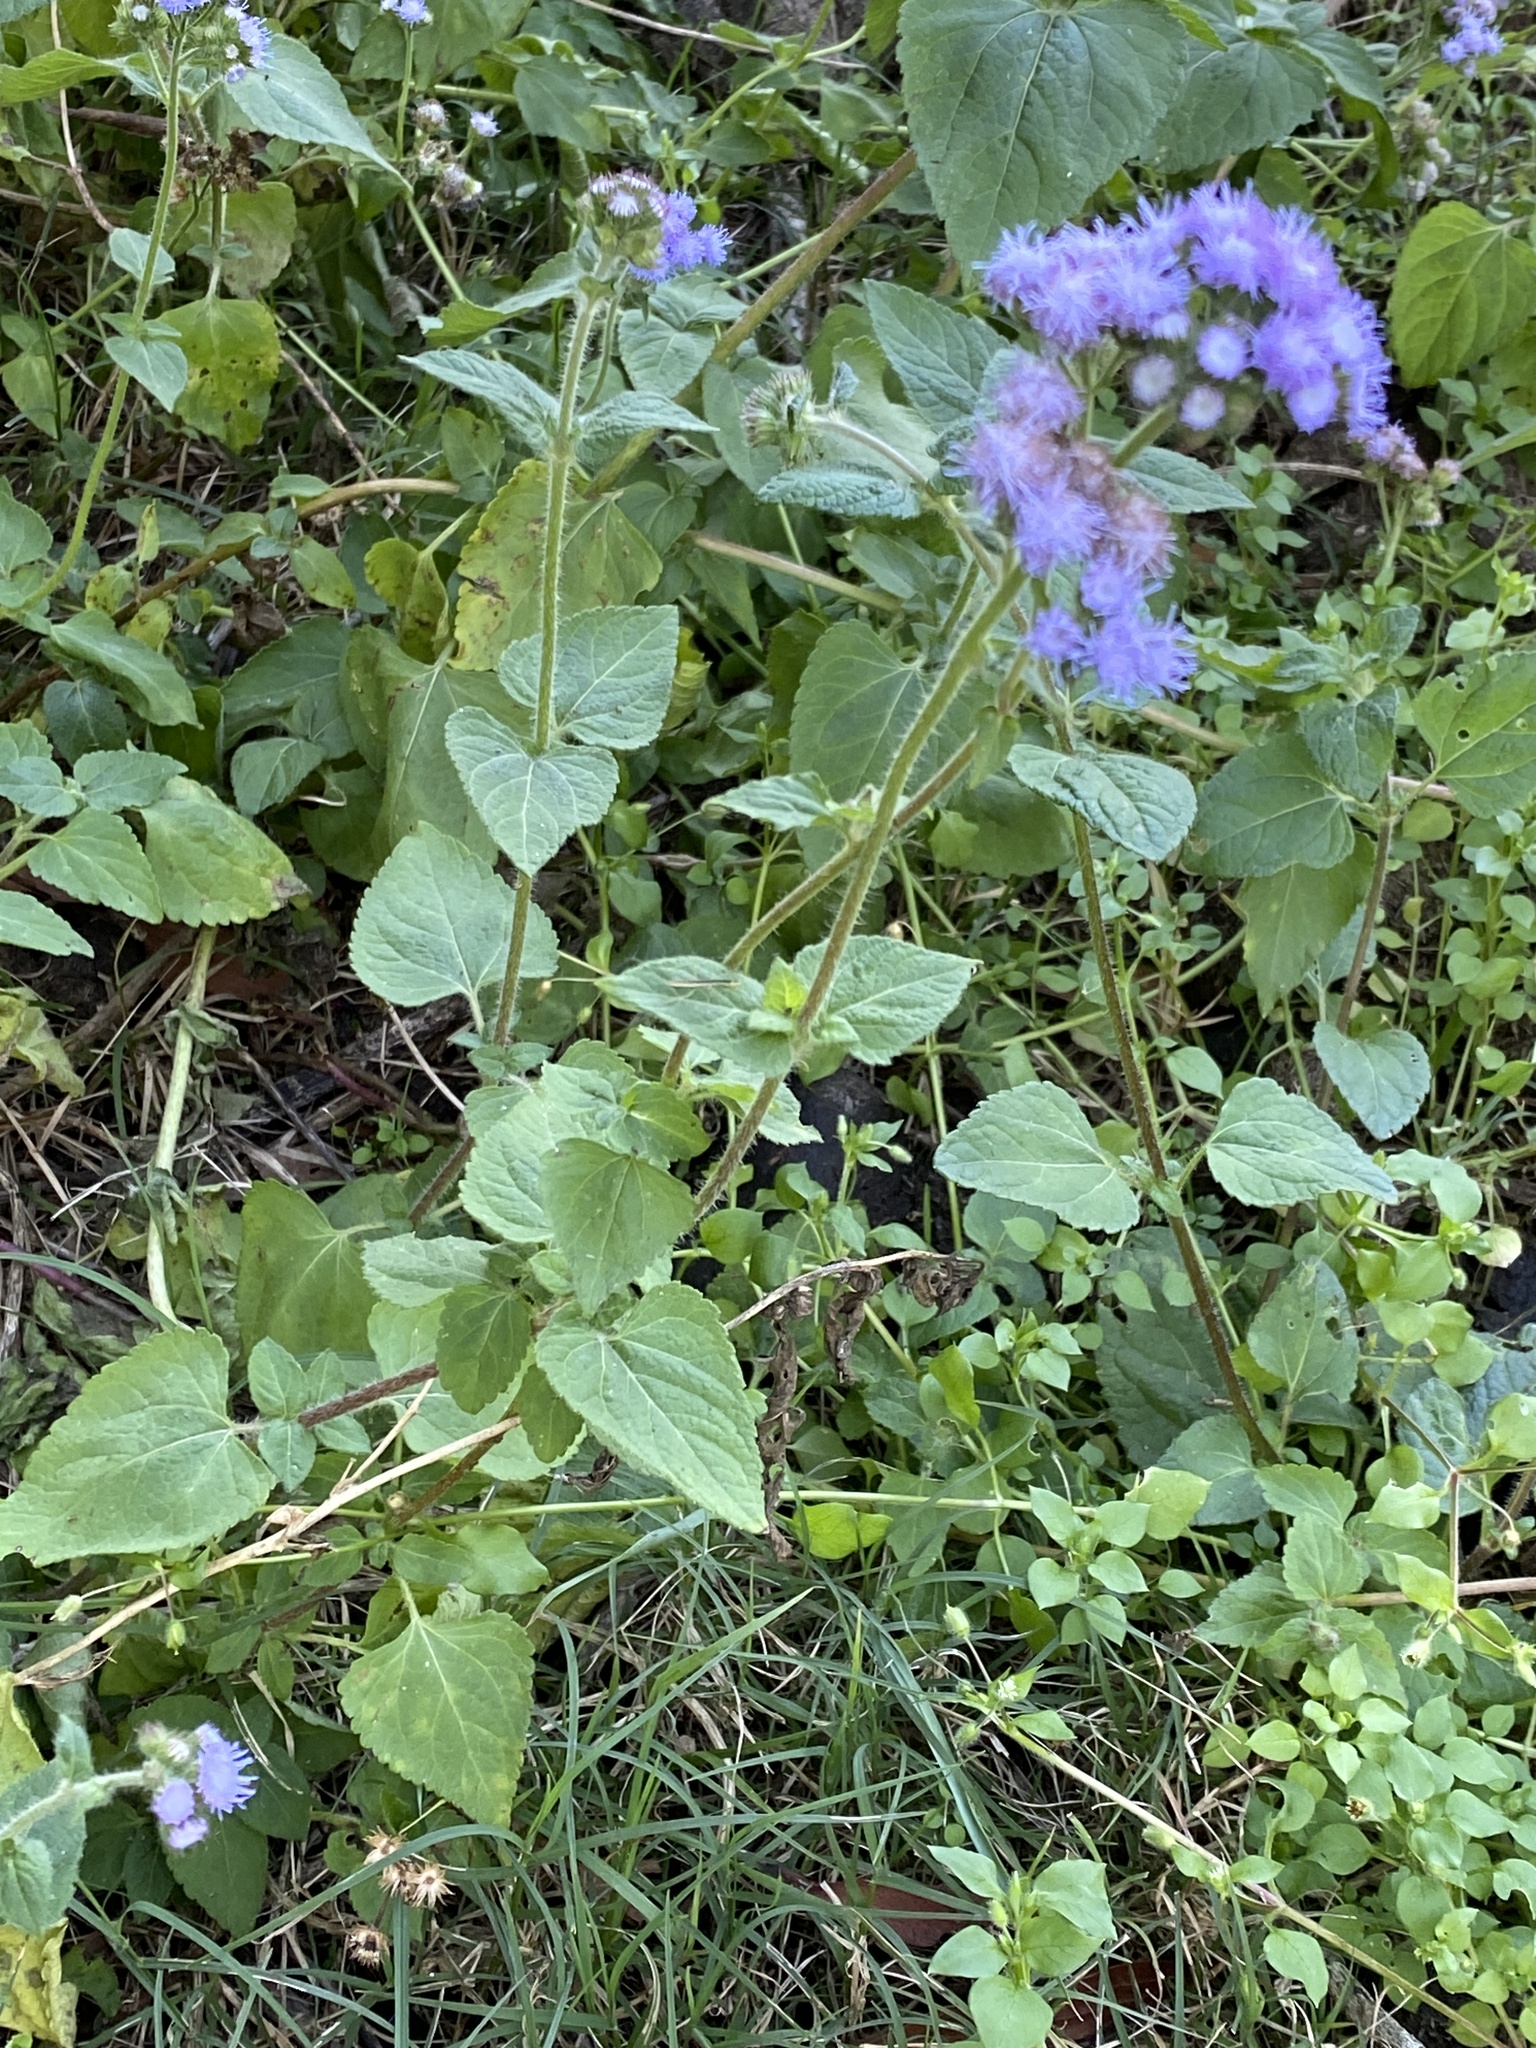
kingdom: Plantae
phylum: Tracheophyta
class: Magnoliopsida
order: Asterales
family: Asteraceae
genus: Ageratum
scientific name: Ageratum houstonianum
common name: Bluemink
